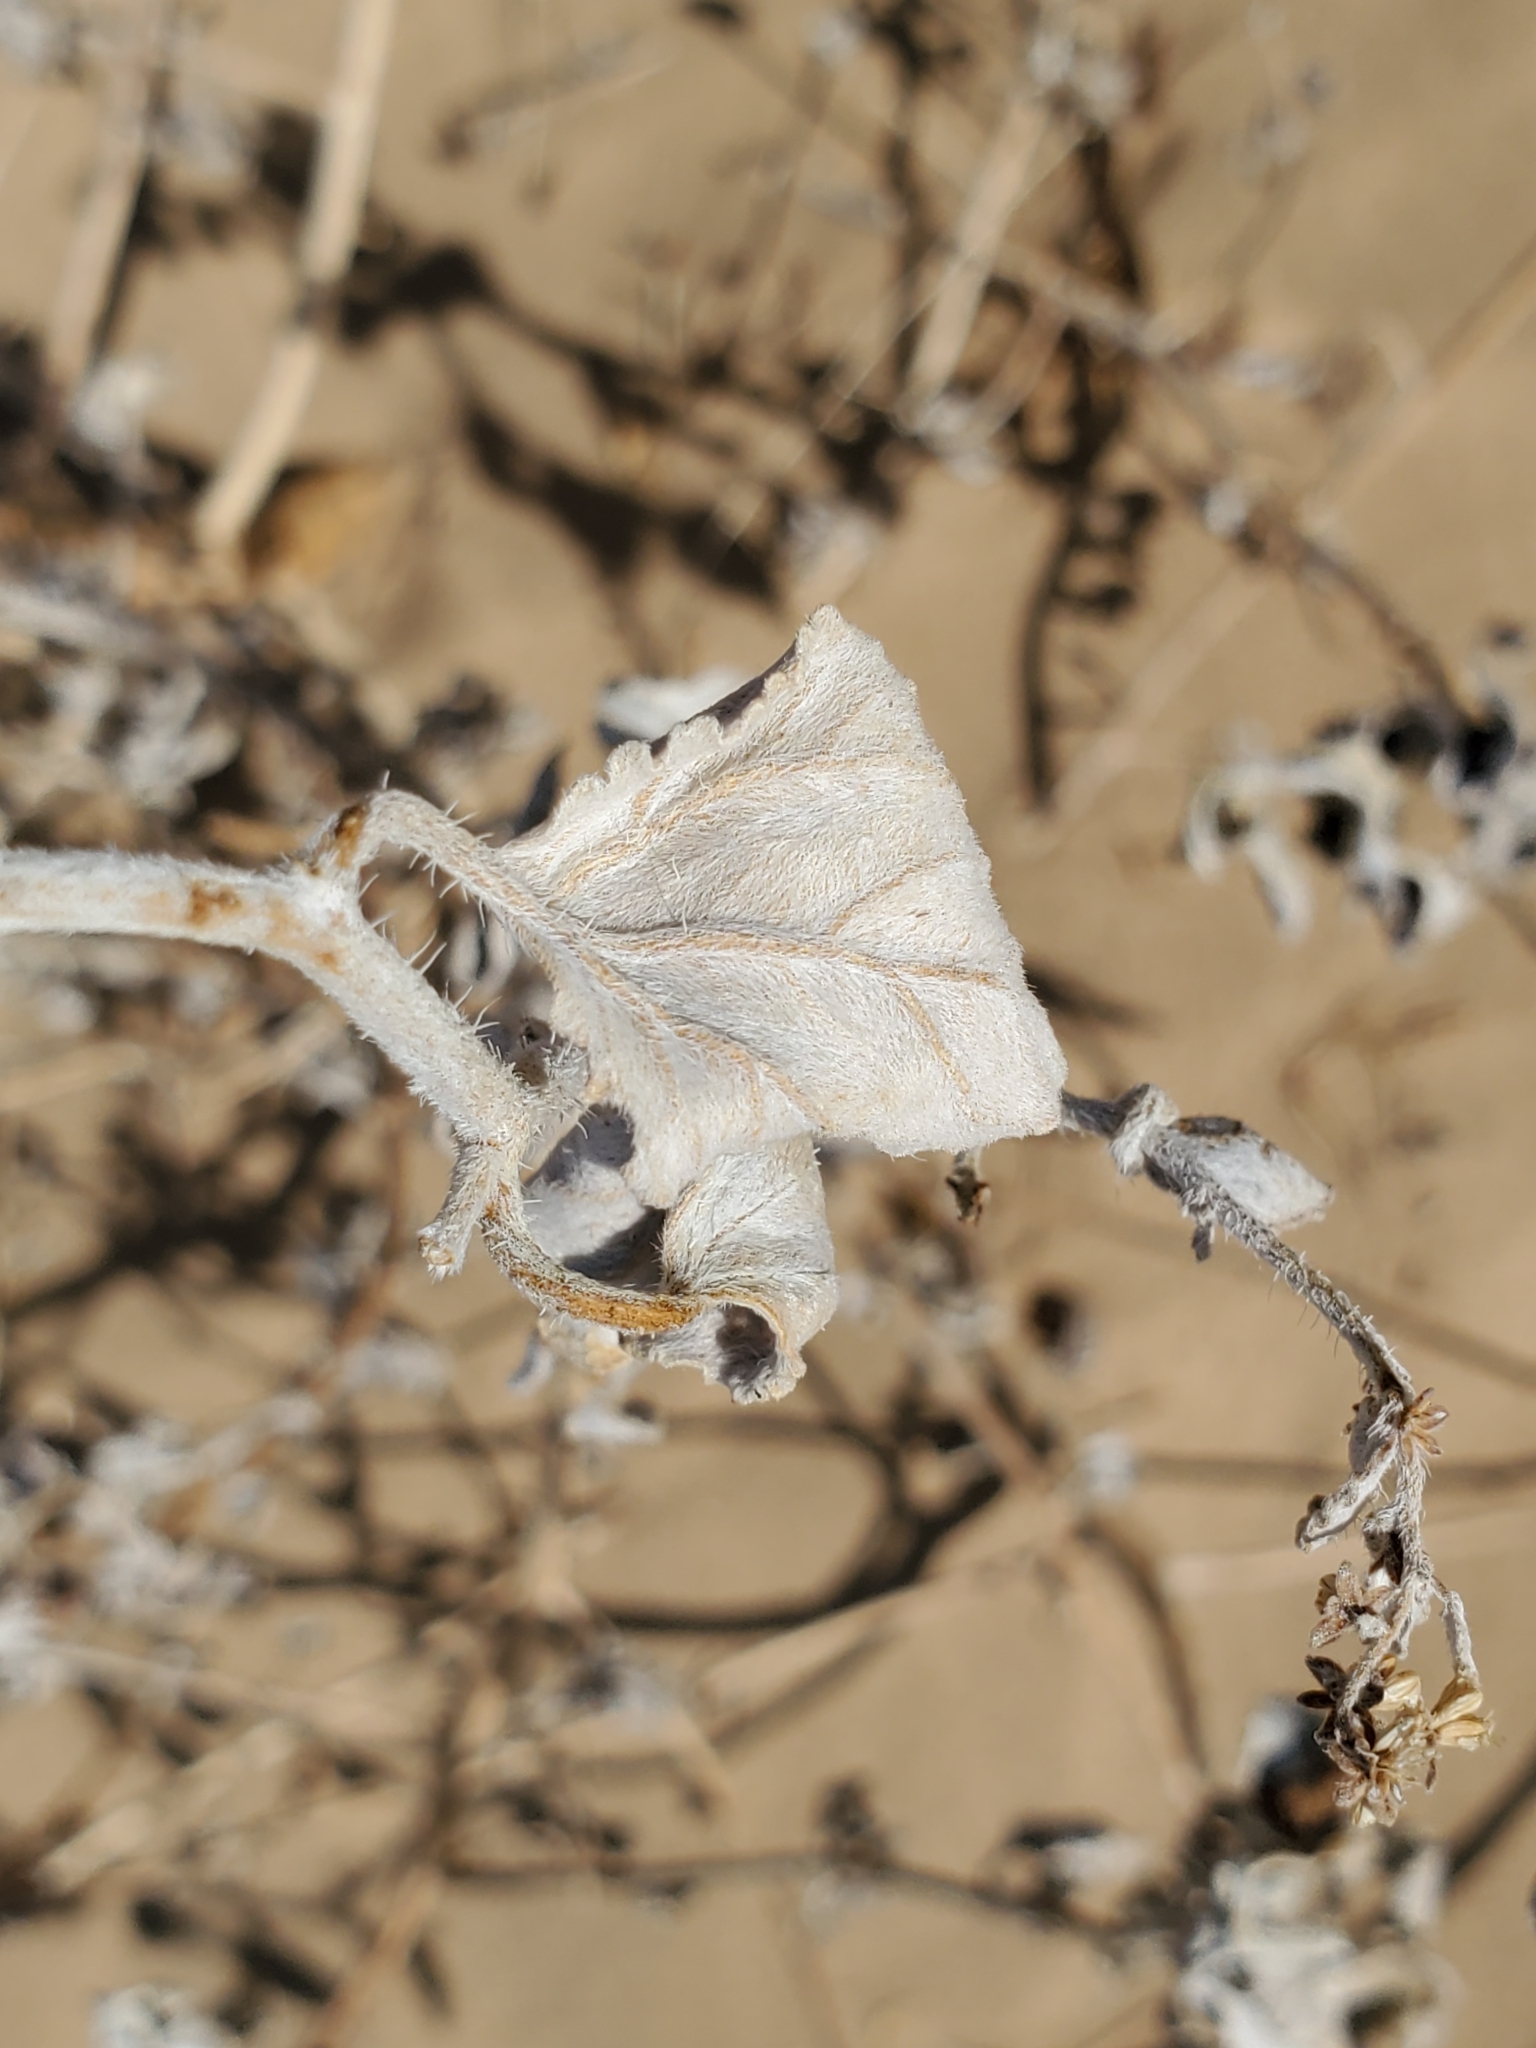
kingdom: Plantae
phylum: Tracheophyta
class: Magnoliopsida
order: Asterales
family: Asteraceae
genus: Dicoria
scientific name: Dicoria canescens
